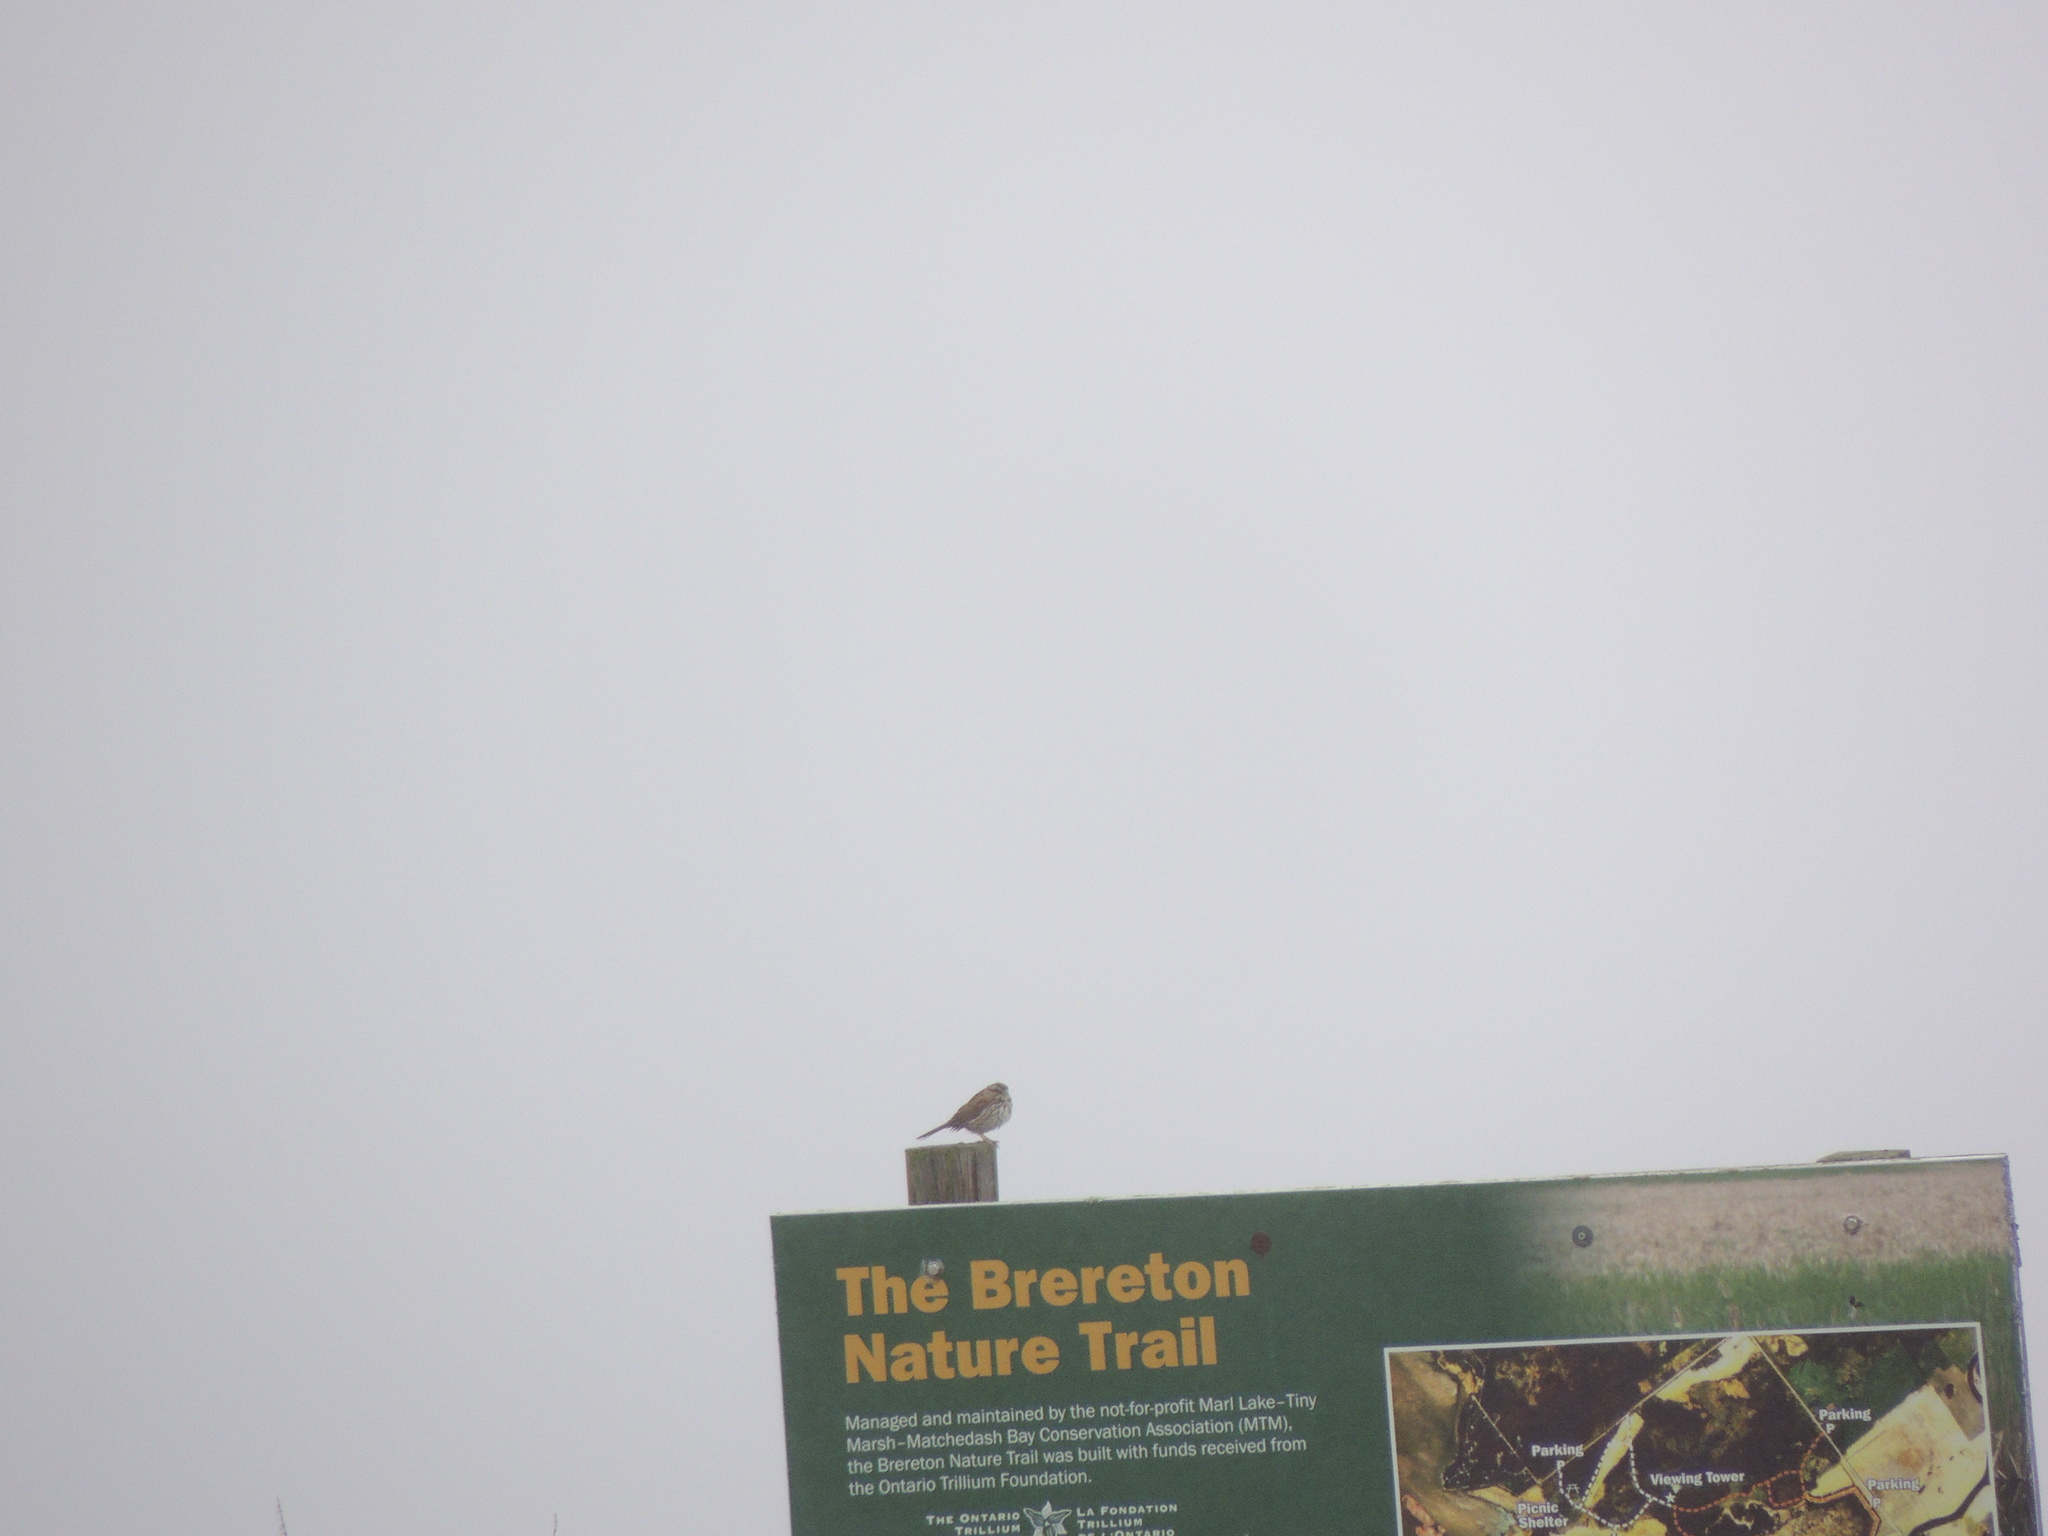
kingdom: Animalia
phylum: Chordata
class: Aves
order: Passeriformes
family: Passerellidae
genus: Melospiza
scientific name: Melospiza melodia
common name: Song sparrow
